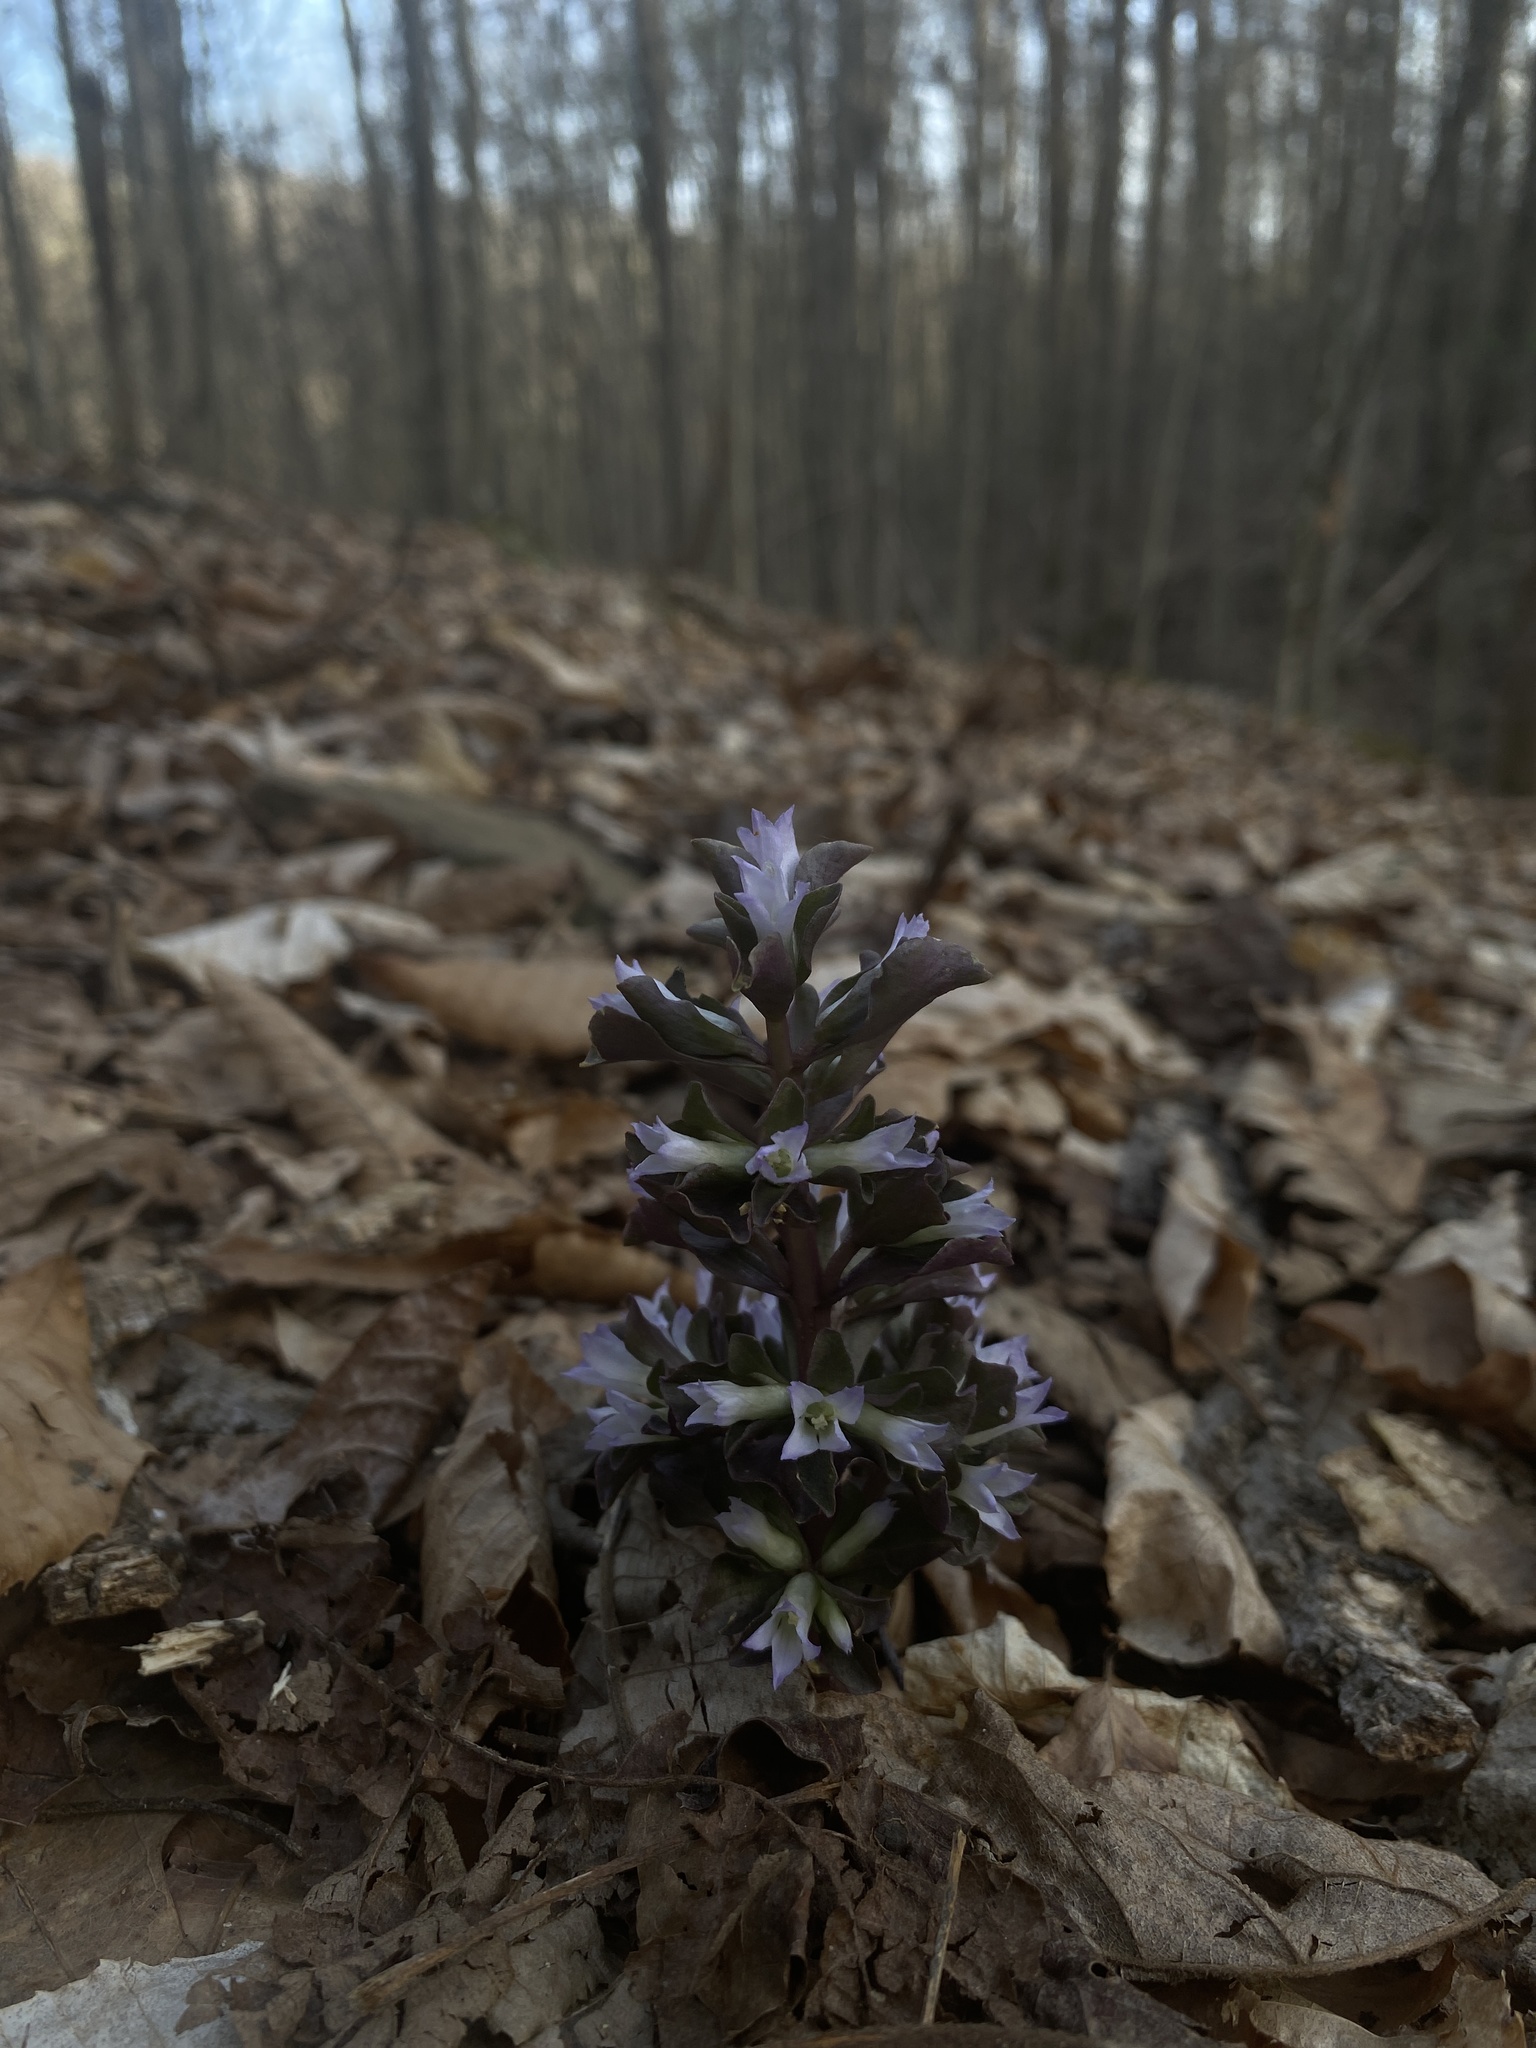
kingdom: Plantae
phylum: Tracheophyta
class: Magnoliopsida
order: Gentianales
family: Gentianaceae
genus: Obolaria
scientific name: Obolaria virginica
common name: Pennywort
